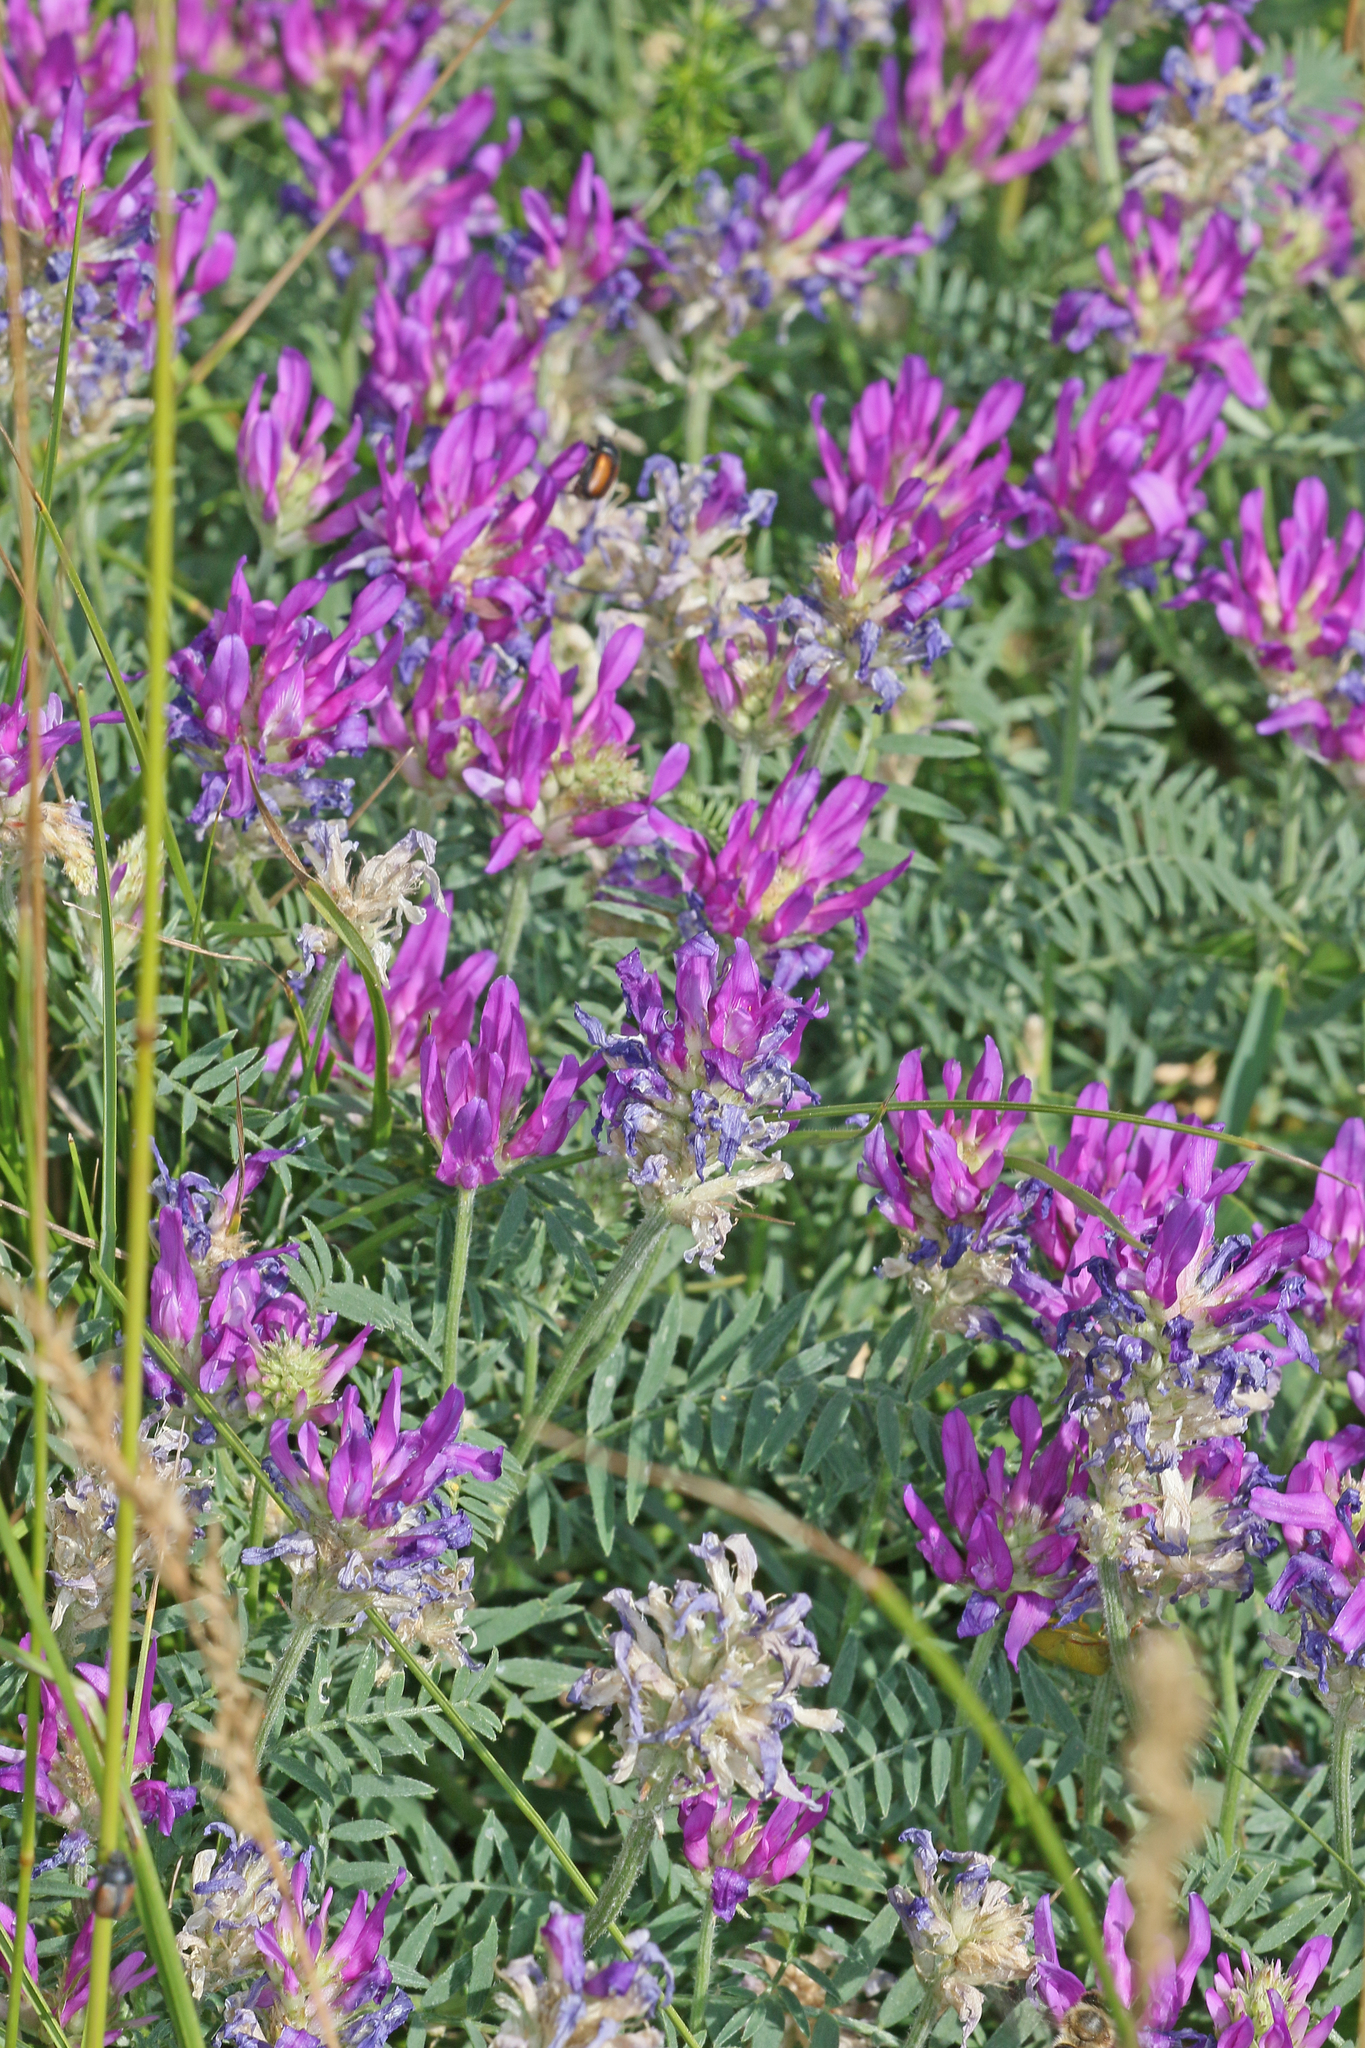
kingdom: Plantae
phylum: Tracheophyta
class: Magnoliopsida
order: Fabales
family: Fabaceae
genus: Astragalus
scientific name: Astragalus onobrychis
